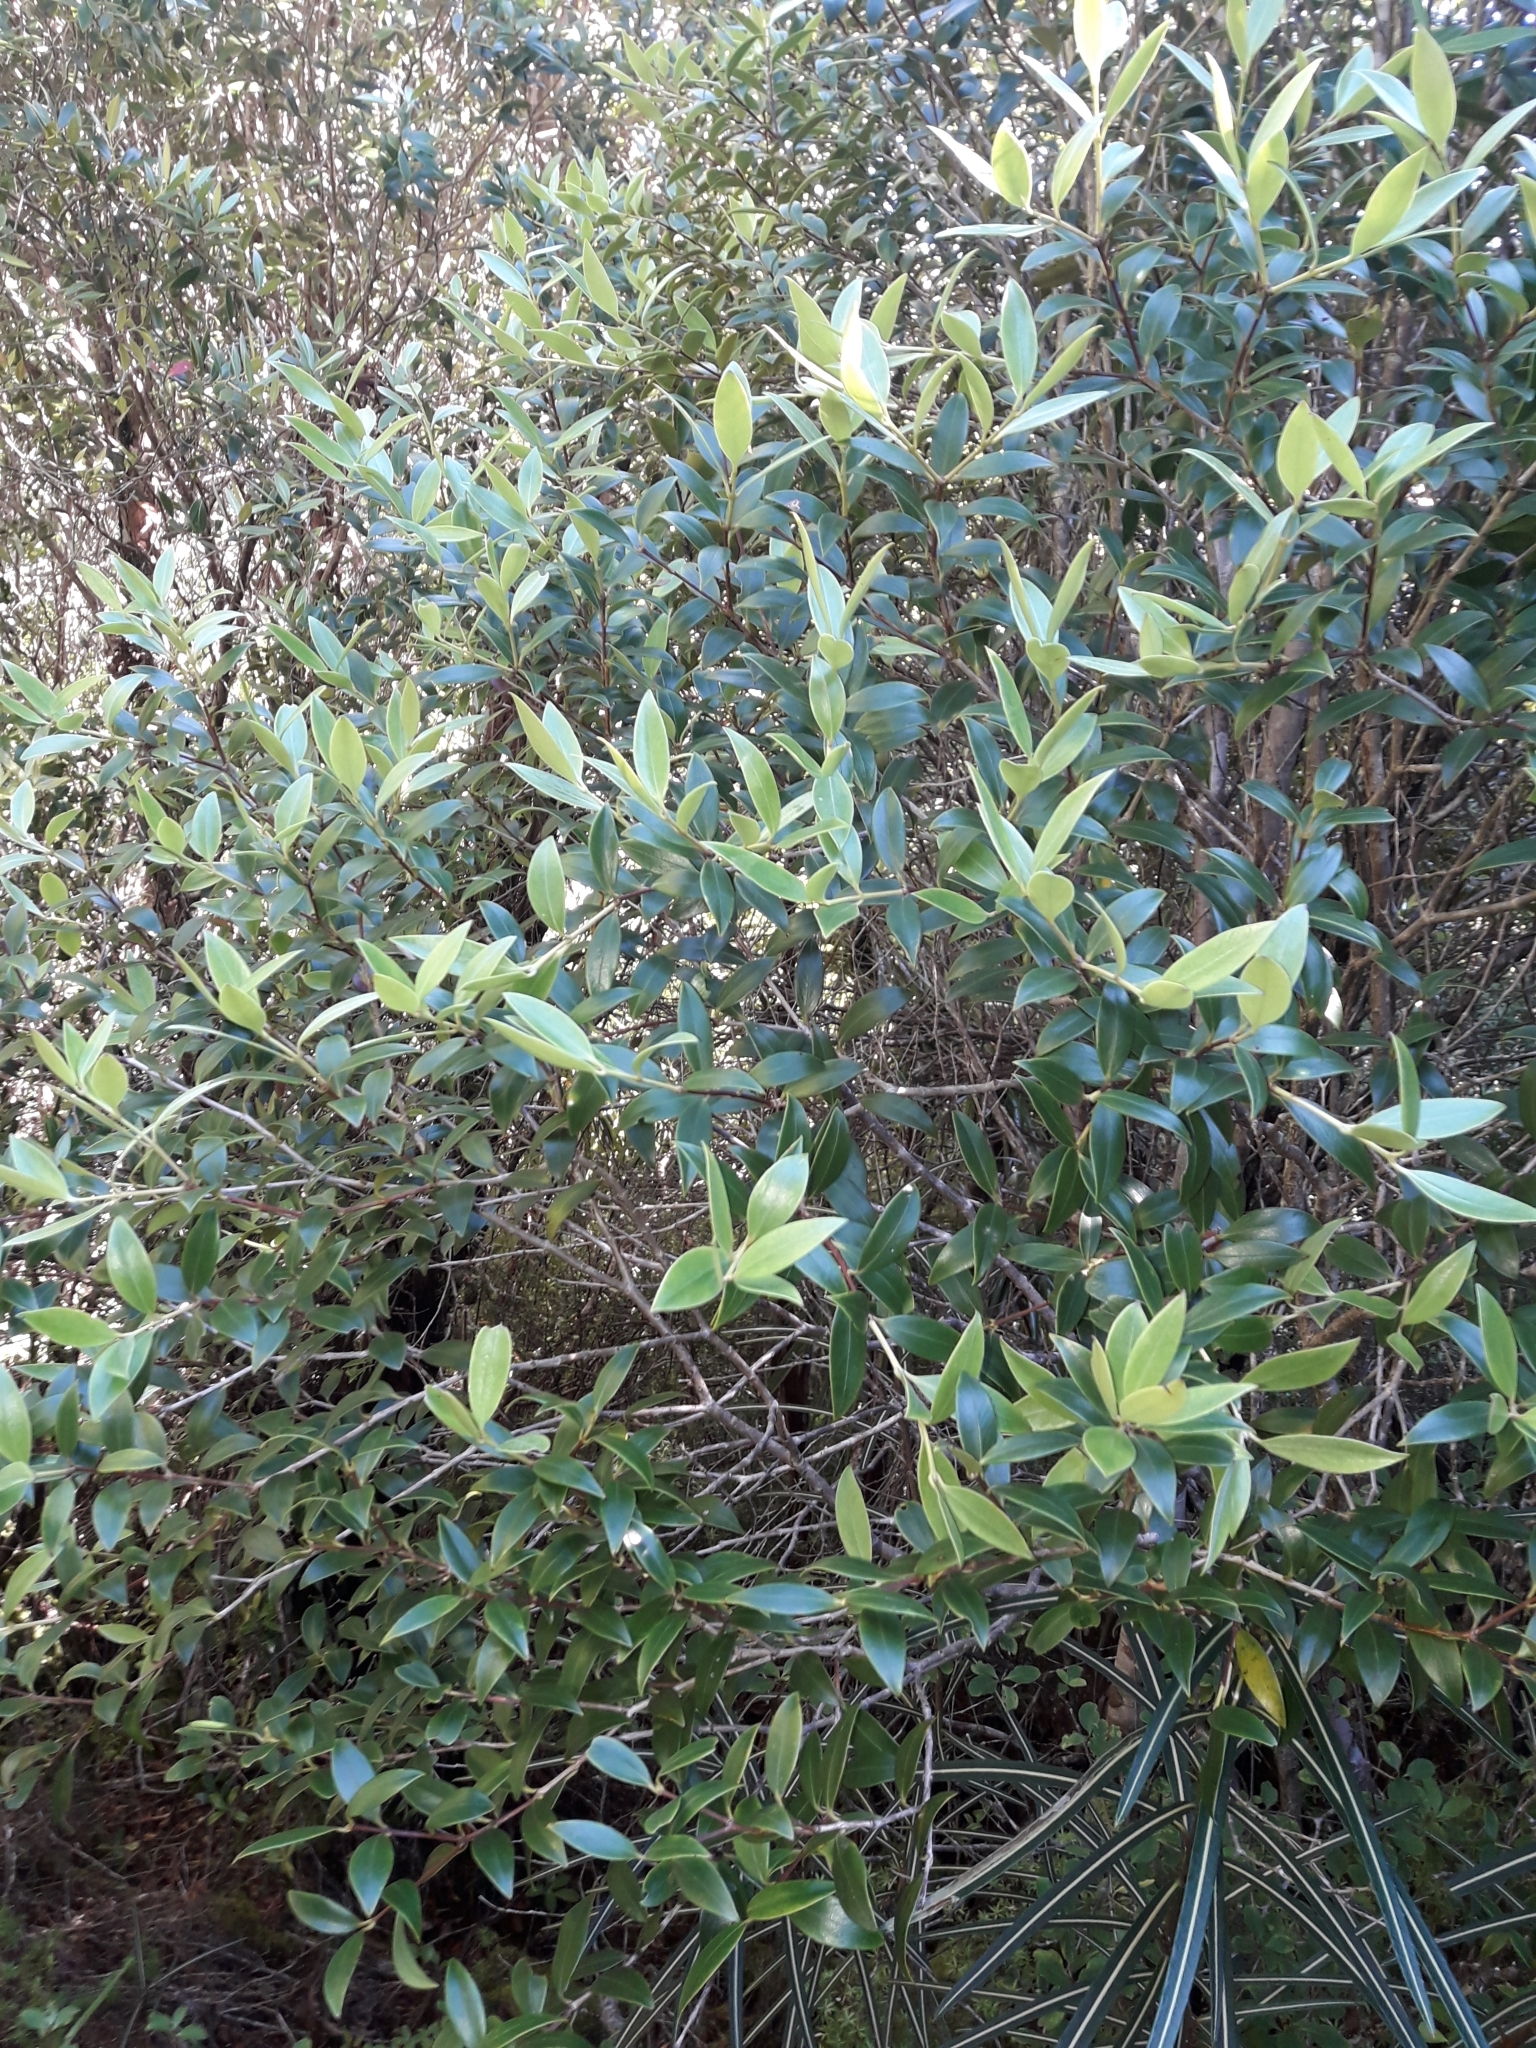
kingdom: Plantae
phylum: Tracheophyta
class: Magnoliopsida
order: Myrtales
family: Myrtaceae
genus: Metrosideros
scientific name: Metrosideros umbellata
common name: Southern rata
